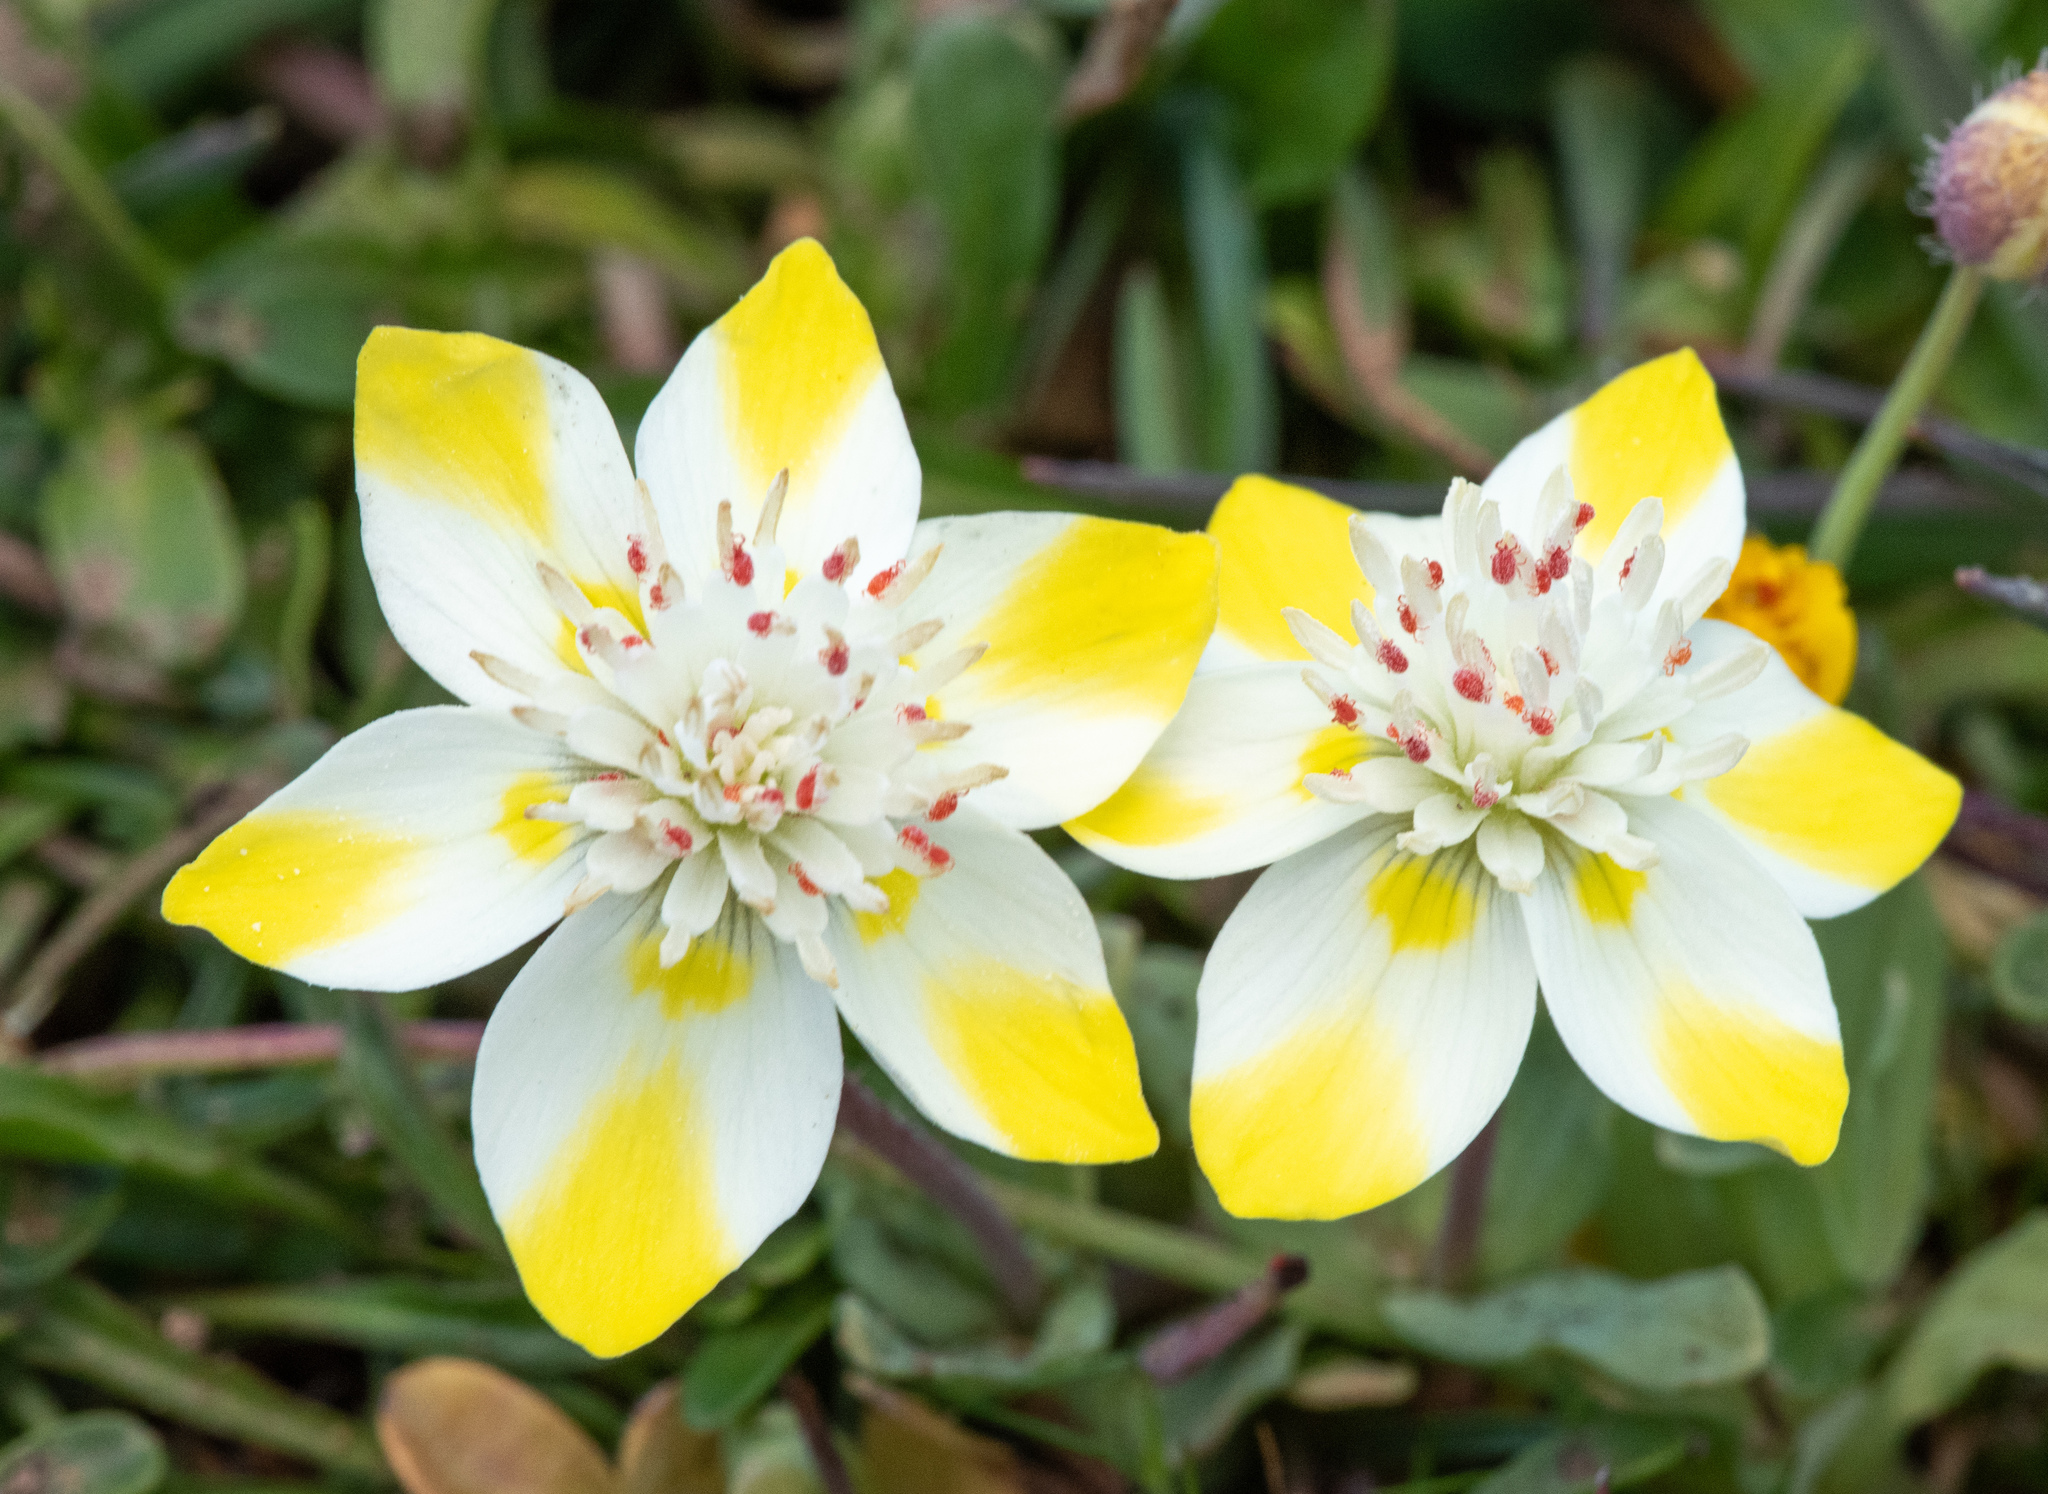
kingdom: Plantae
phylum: Tracheophyta
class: Magnoliopsida
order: Ranunculales
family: Papaveraceae
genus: Platystemon
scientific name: Platystemon californicus
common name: Cream-cups
